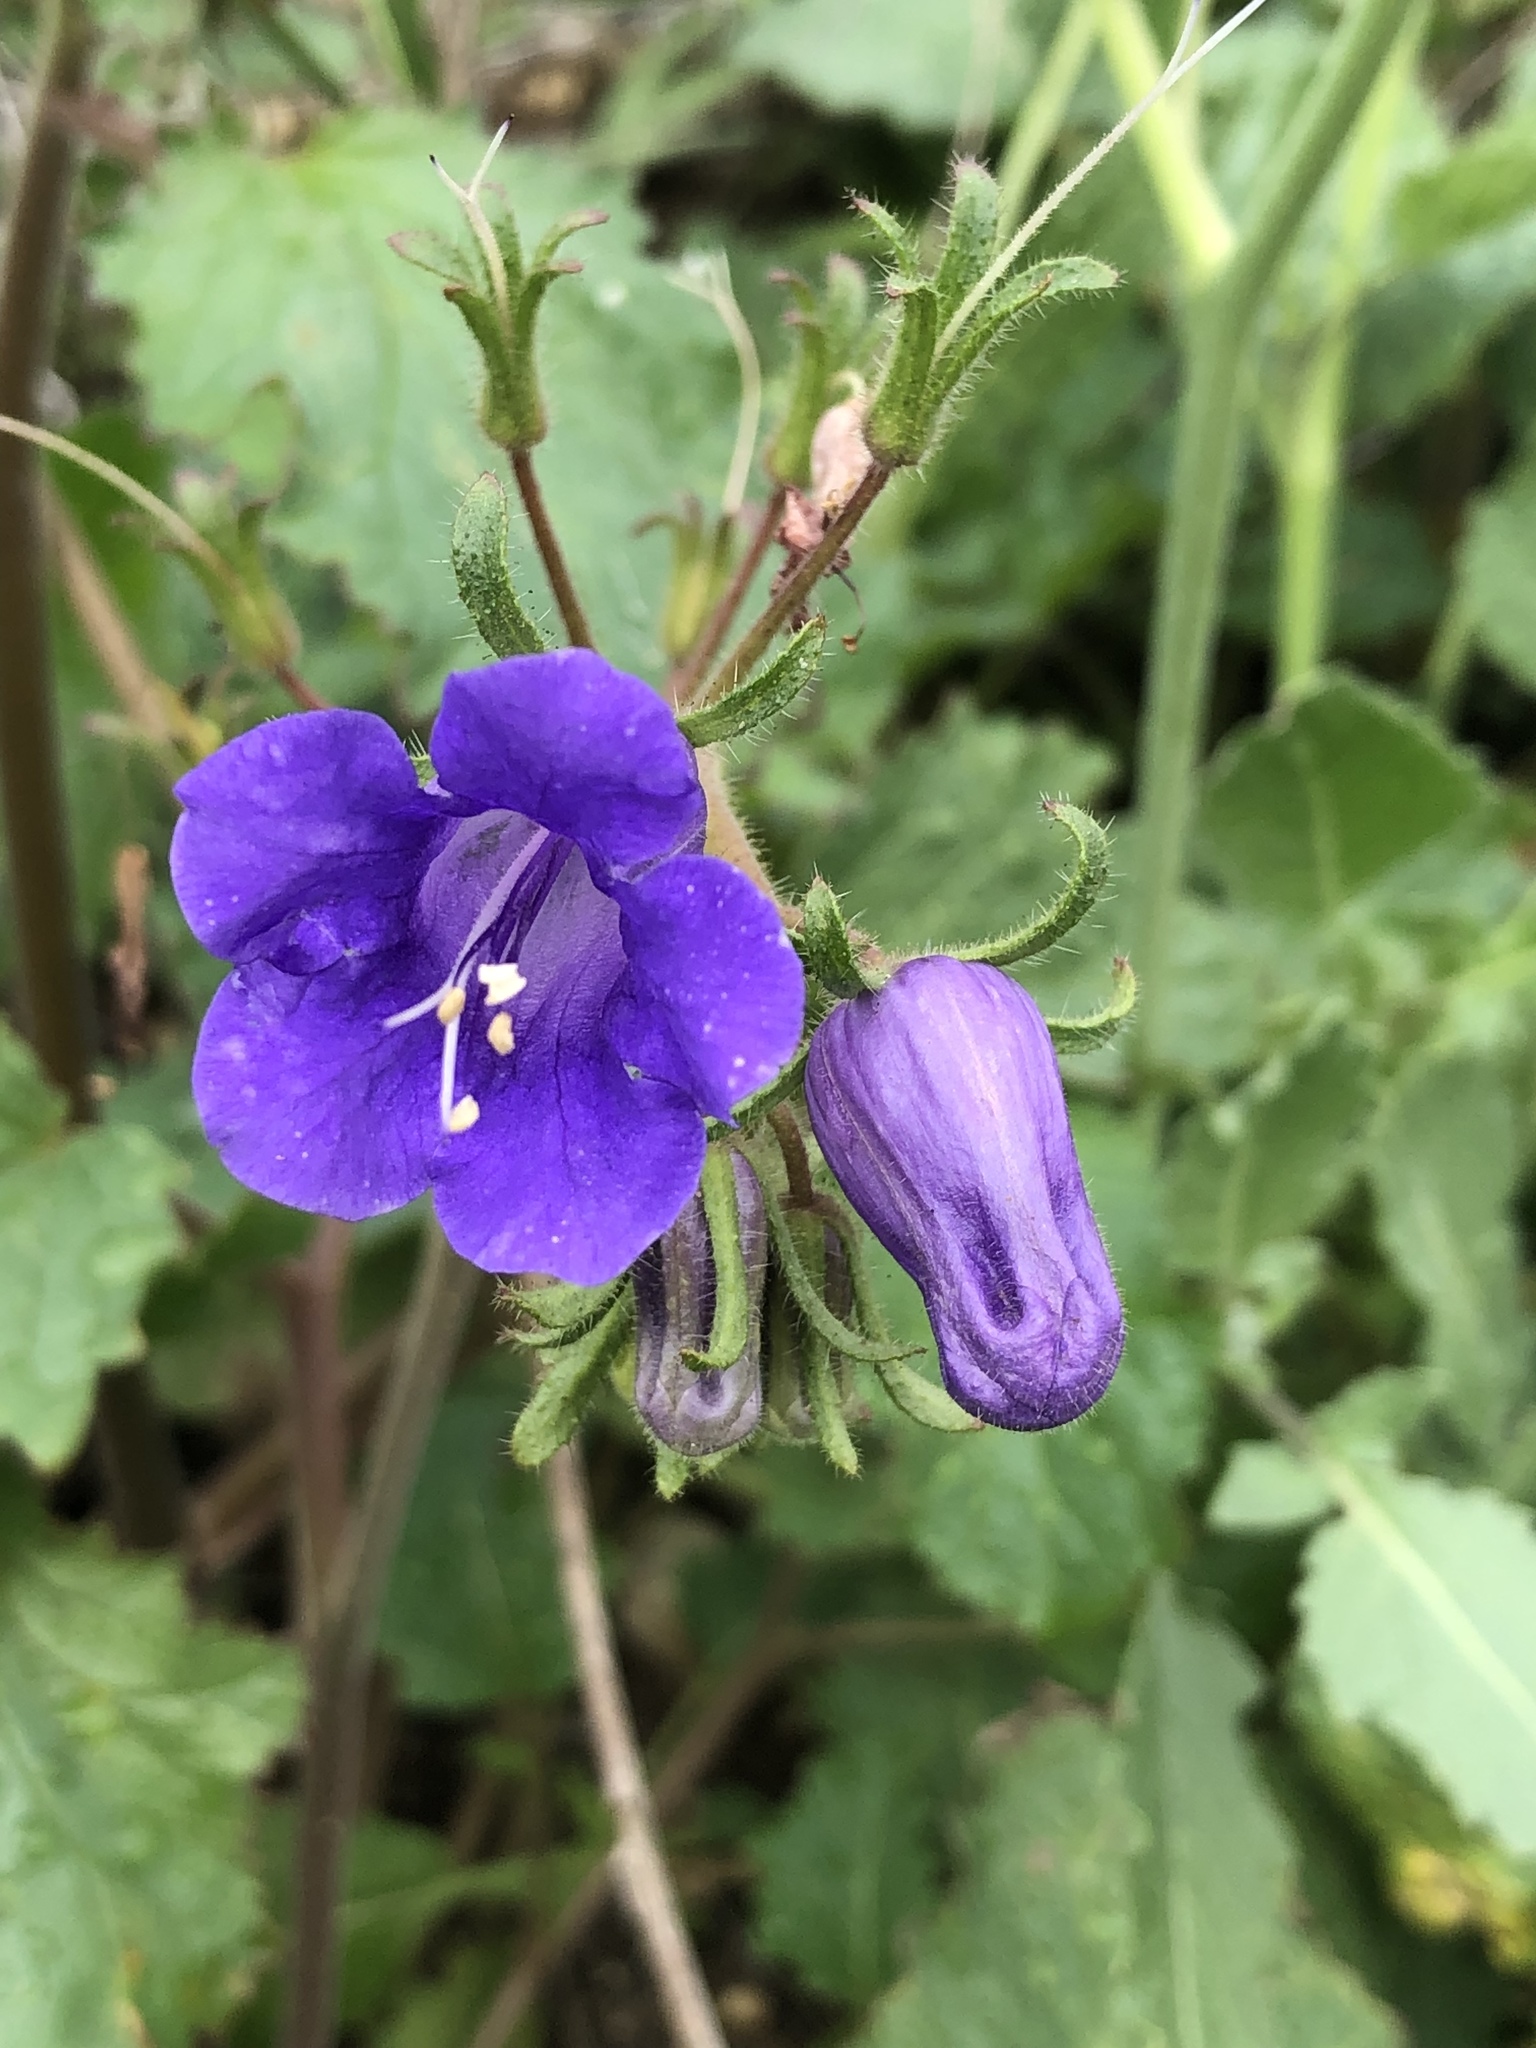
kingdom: Plantae
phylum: Tracheophyta
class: Magnoliopsida
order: Boraginales
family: Hydrophyllaceae
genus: Phacelia
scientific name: Phacelia minor
